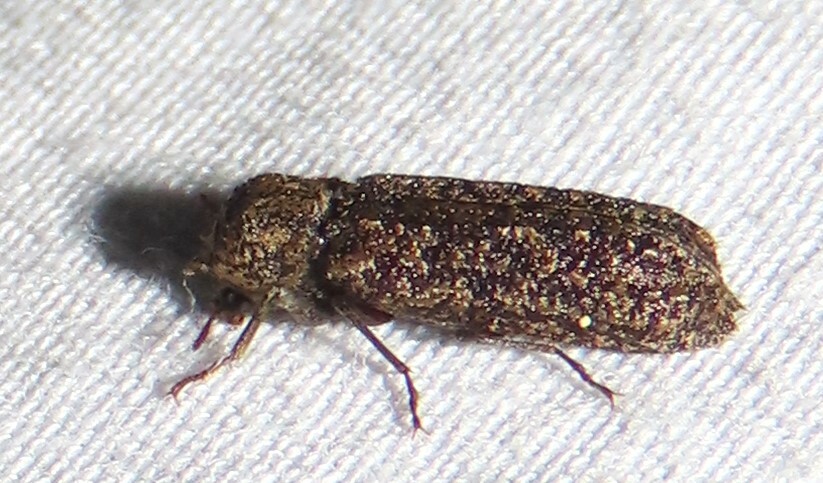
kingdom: Animalia
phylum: Arthropoda
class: Insecta
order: Coleoptera
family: Bostrichidae
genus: Lichenophanes
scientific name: Lichenophanes bicornis
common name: Two-horned powder-post beetle
